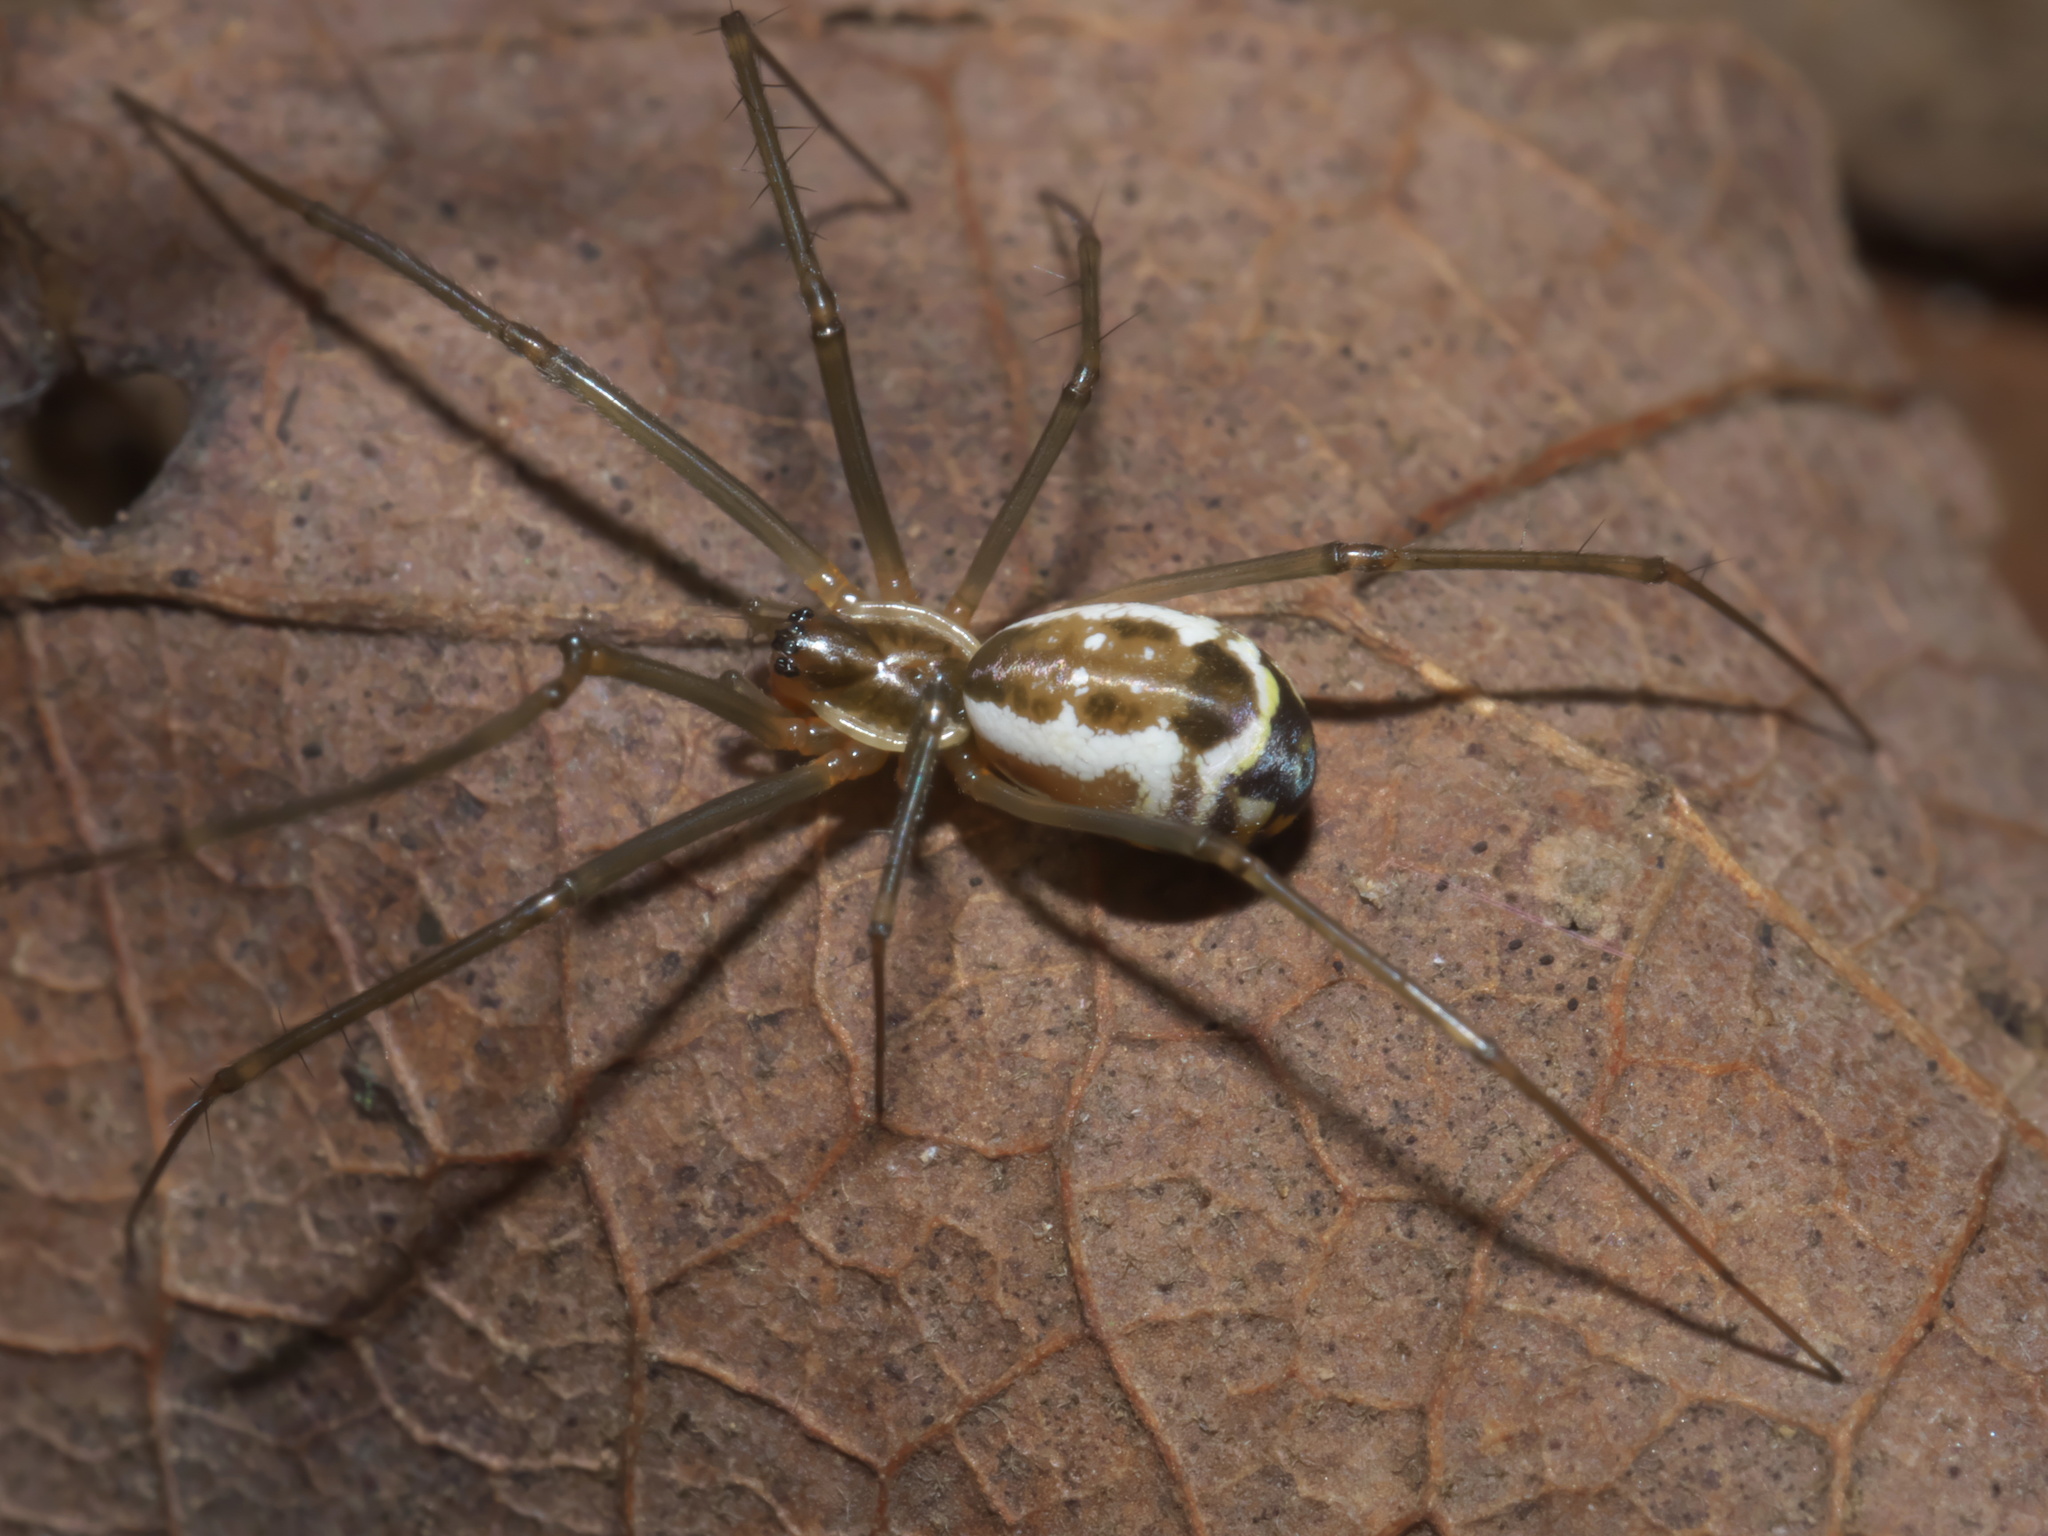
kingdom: Animalia
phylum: Arthropoda
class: Arachnida
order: Araneae
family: Linyphiidae
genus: Neriene
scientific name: Neriene radiata
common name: Filmy dome spider
